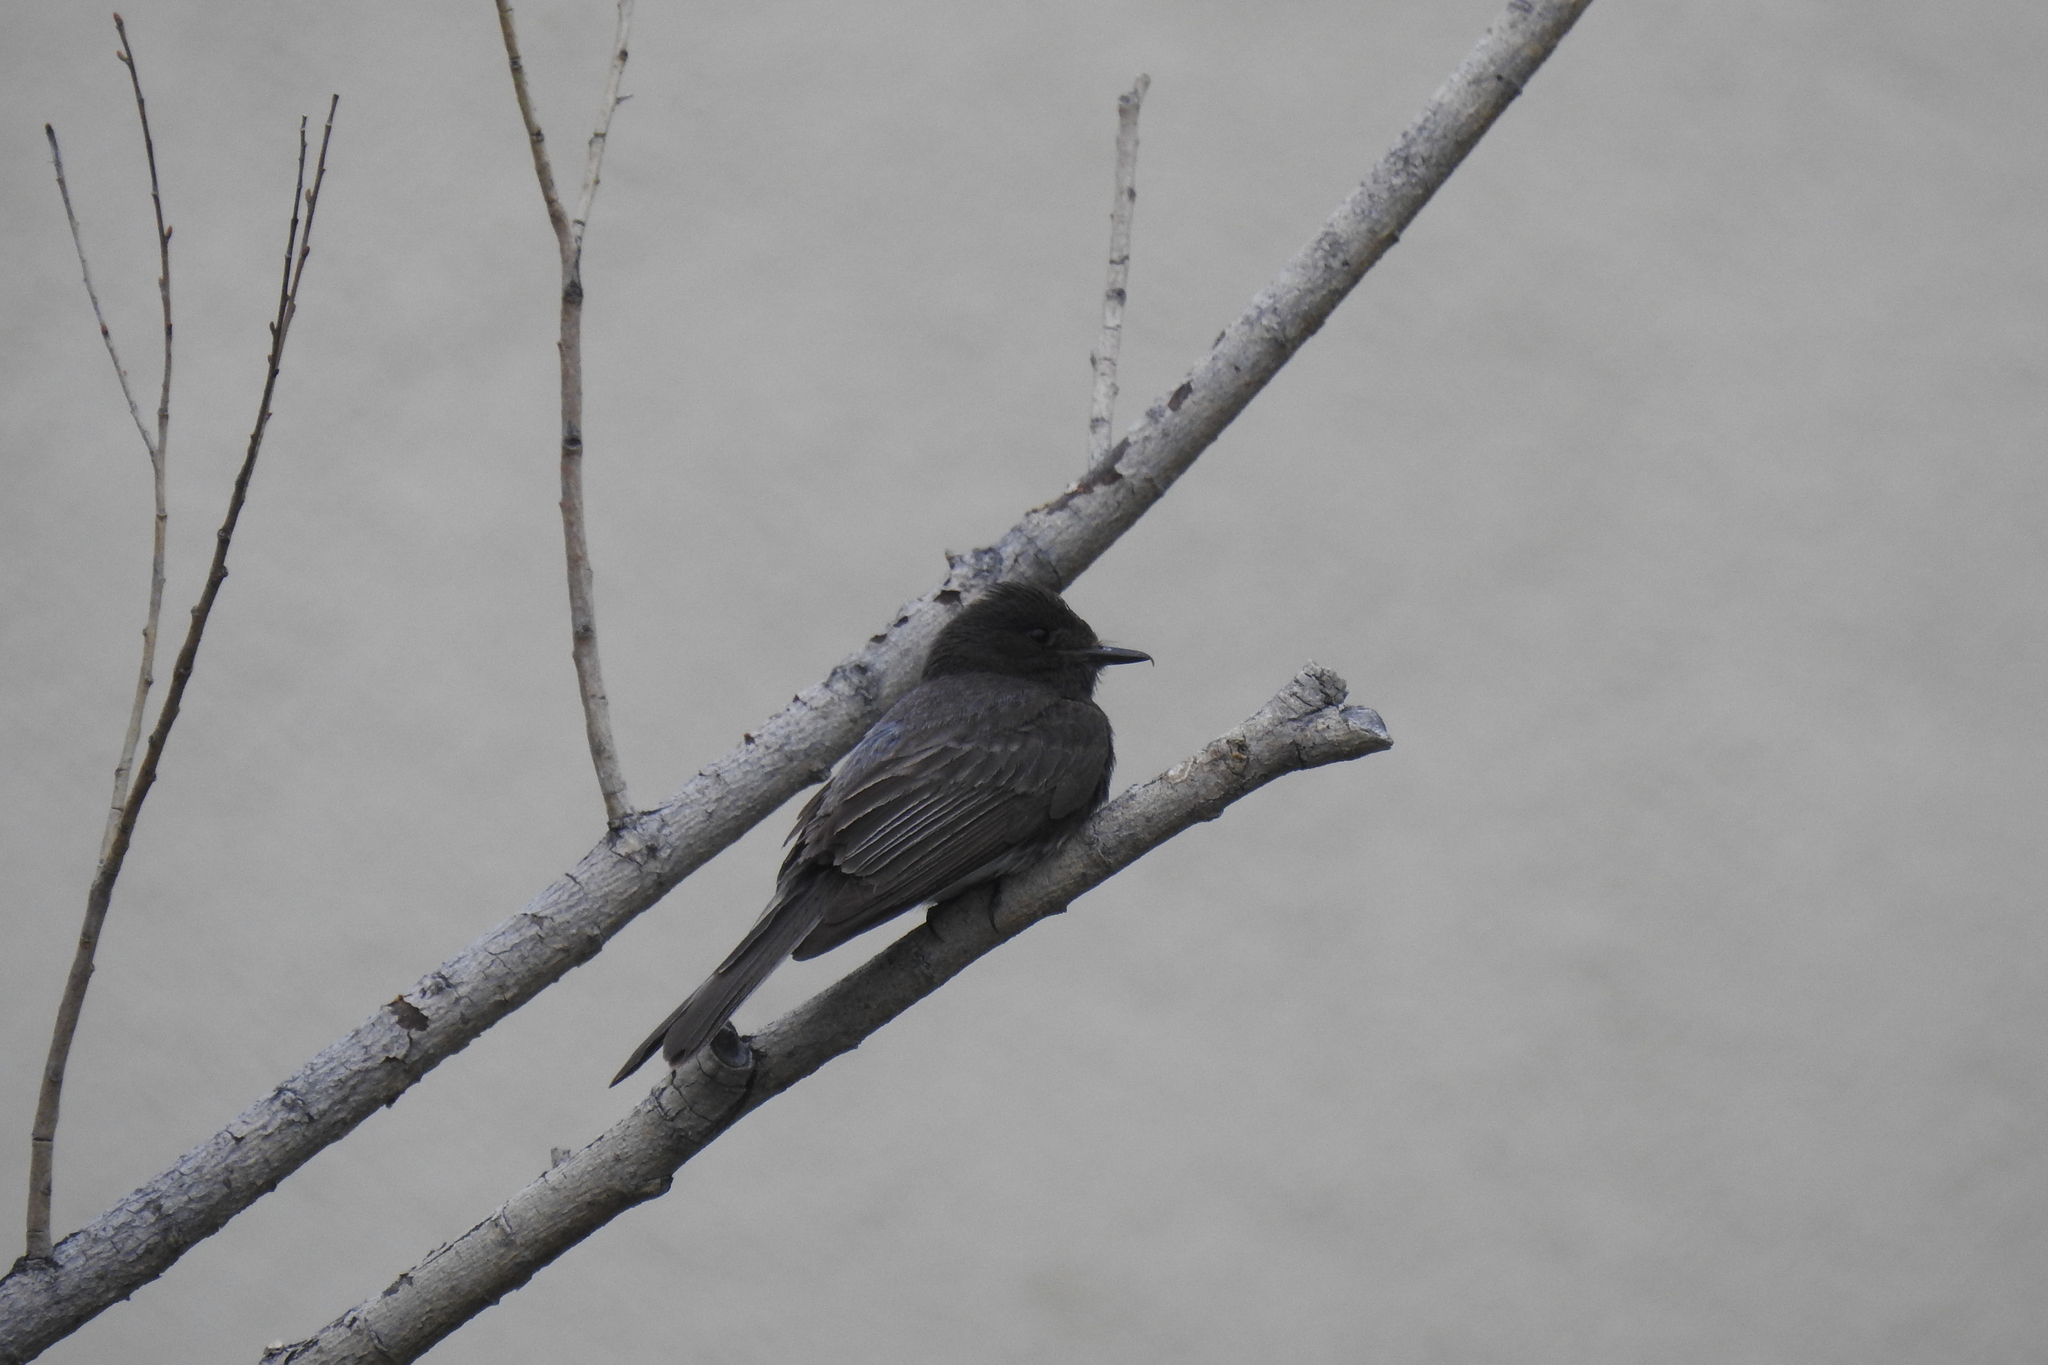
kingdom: Animalia
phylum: Chordata
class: Aves
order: Passeriformes
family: Tyrannidae
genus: Sayornis
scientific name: Sayornis nigricans
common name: Black phoebe
